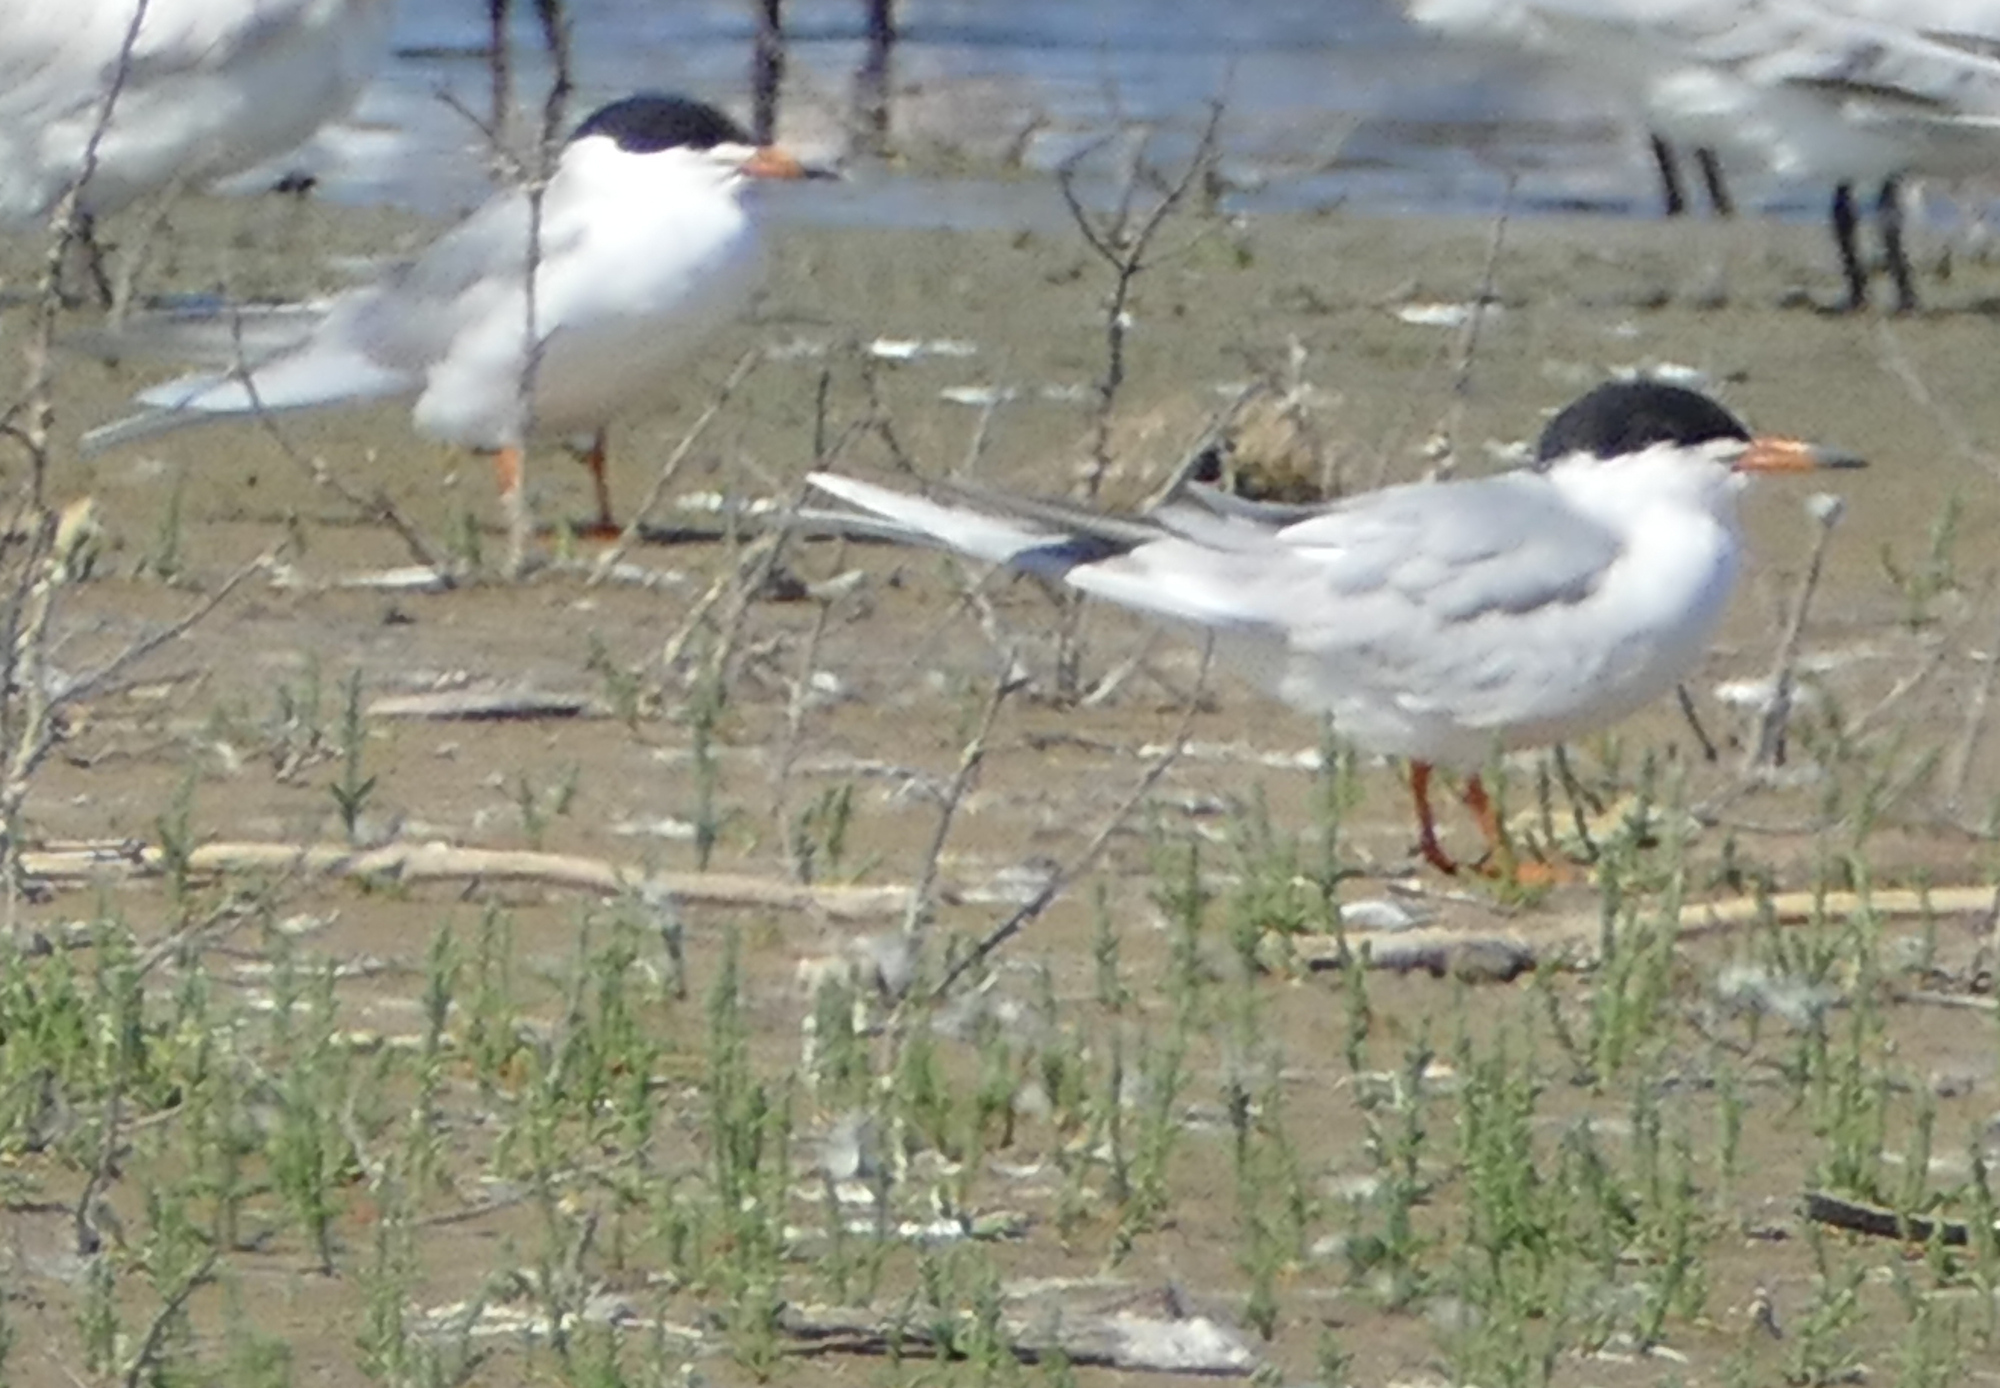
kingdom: Animalia
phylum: Chordata
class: Aves
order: Charadriiformes
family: Laridae
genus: Sterna
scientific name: Sterna forsteri
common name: Forster's tern
